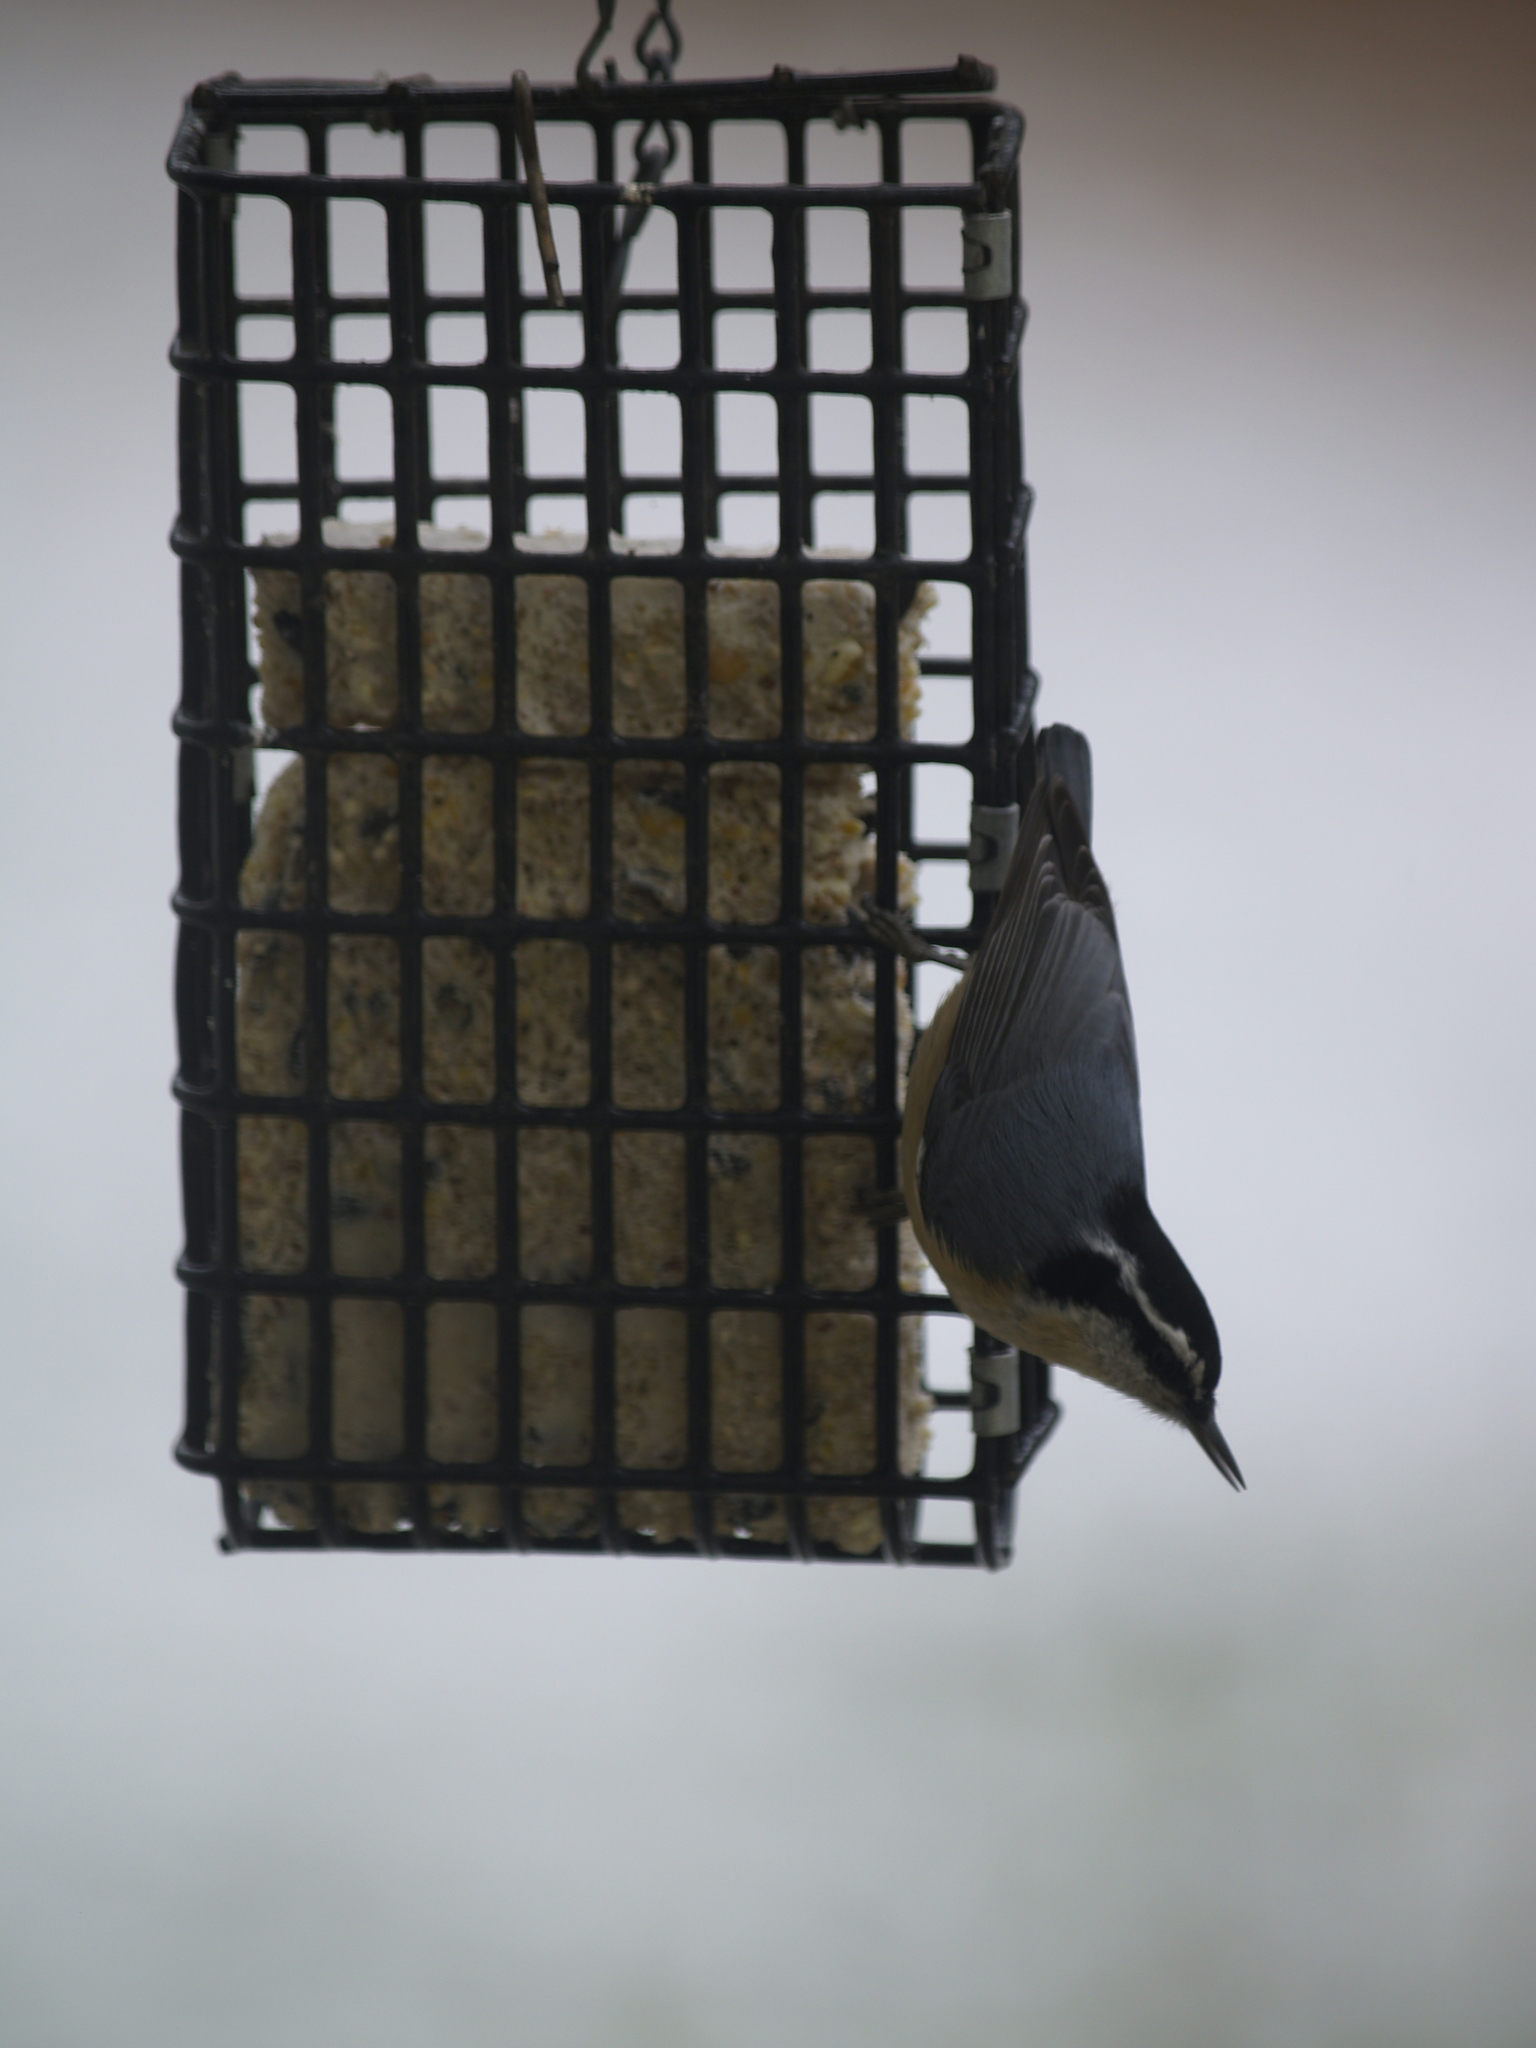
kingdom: Animalia
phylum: Chordata
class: Aves
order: Passeriformes
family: Sittidae
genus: Sitta
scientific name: Sitta canadensis
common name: Red-breasted nuthatch
